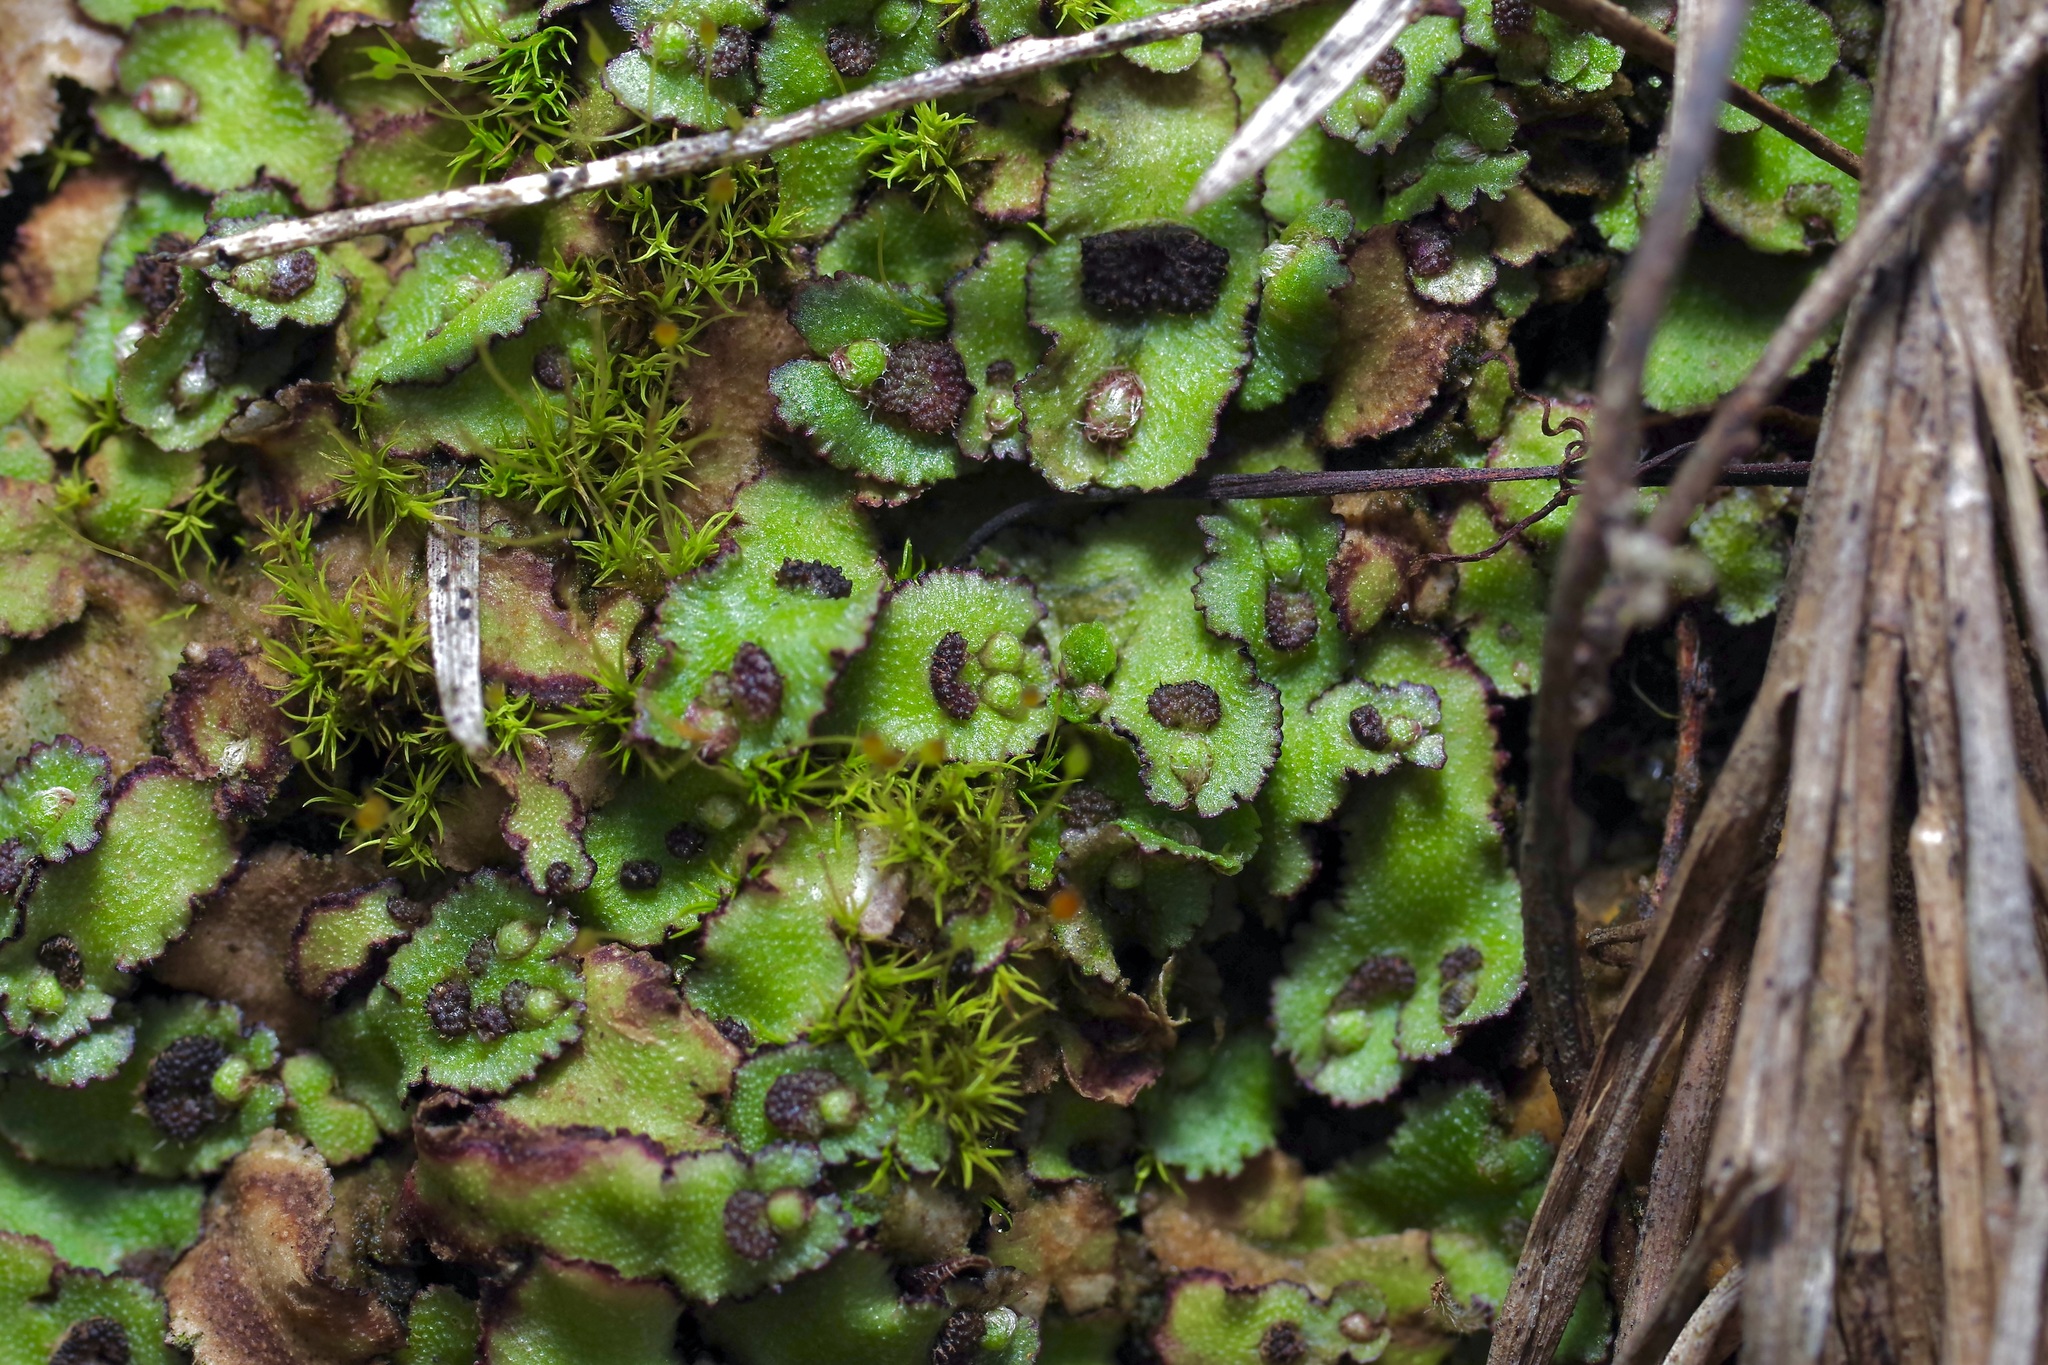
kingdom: Plantae
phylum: Marchantiophyta
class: Marchantiopsida
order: Marchantiales
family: Aytoniaceae
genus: Reboulia
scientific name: Reboulia hemisphaerica
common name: Purple-margined liverwort
